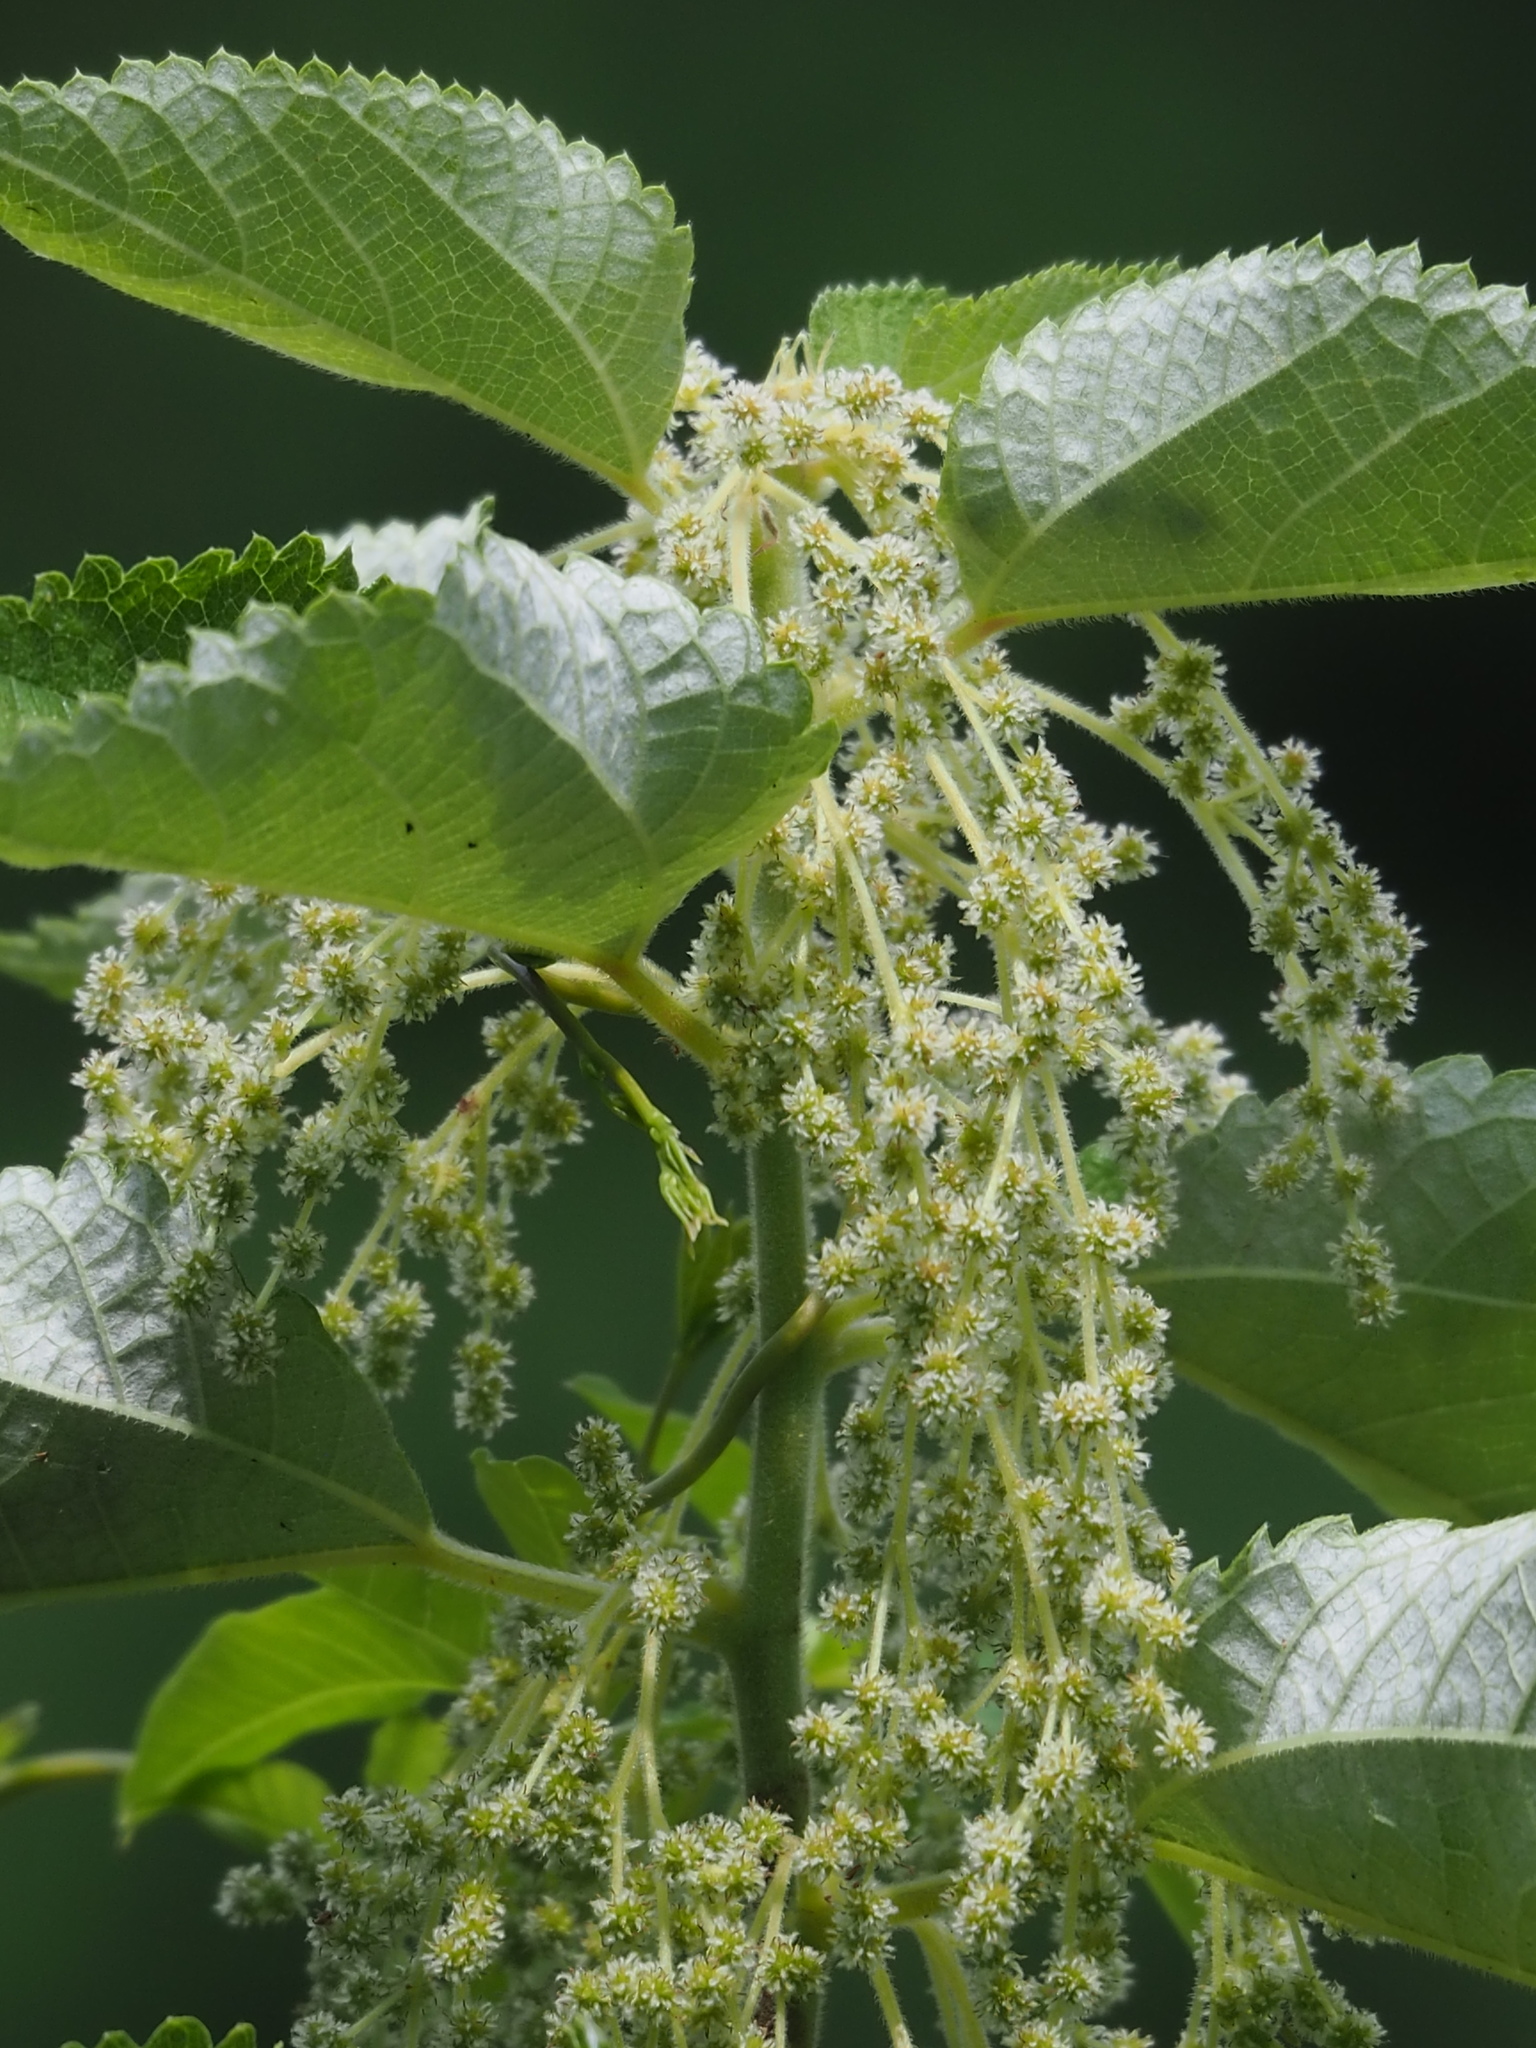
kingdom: Plantae
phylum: Tracheophyta
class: Magnoliopsida
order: Rosales
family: Urticaceae
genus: Boehmeria
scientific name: Boehmeria nivea
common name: Ramie chinese grass
